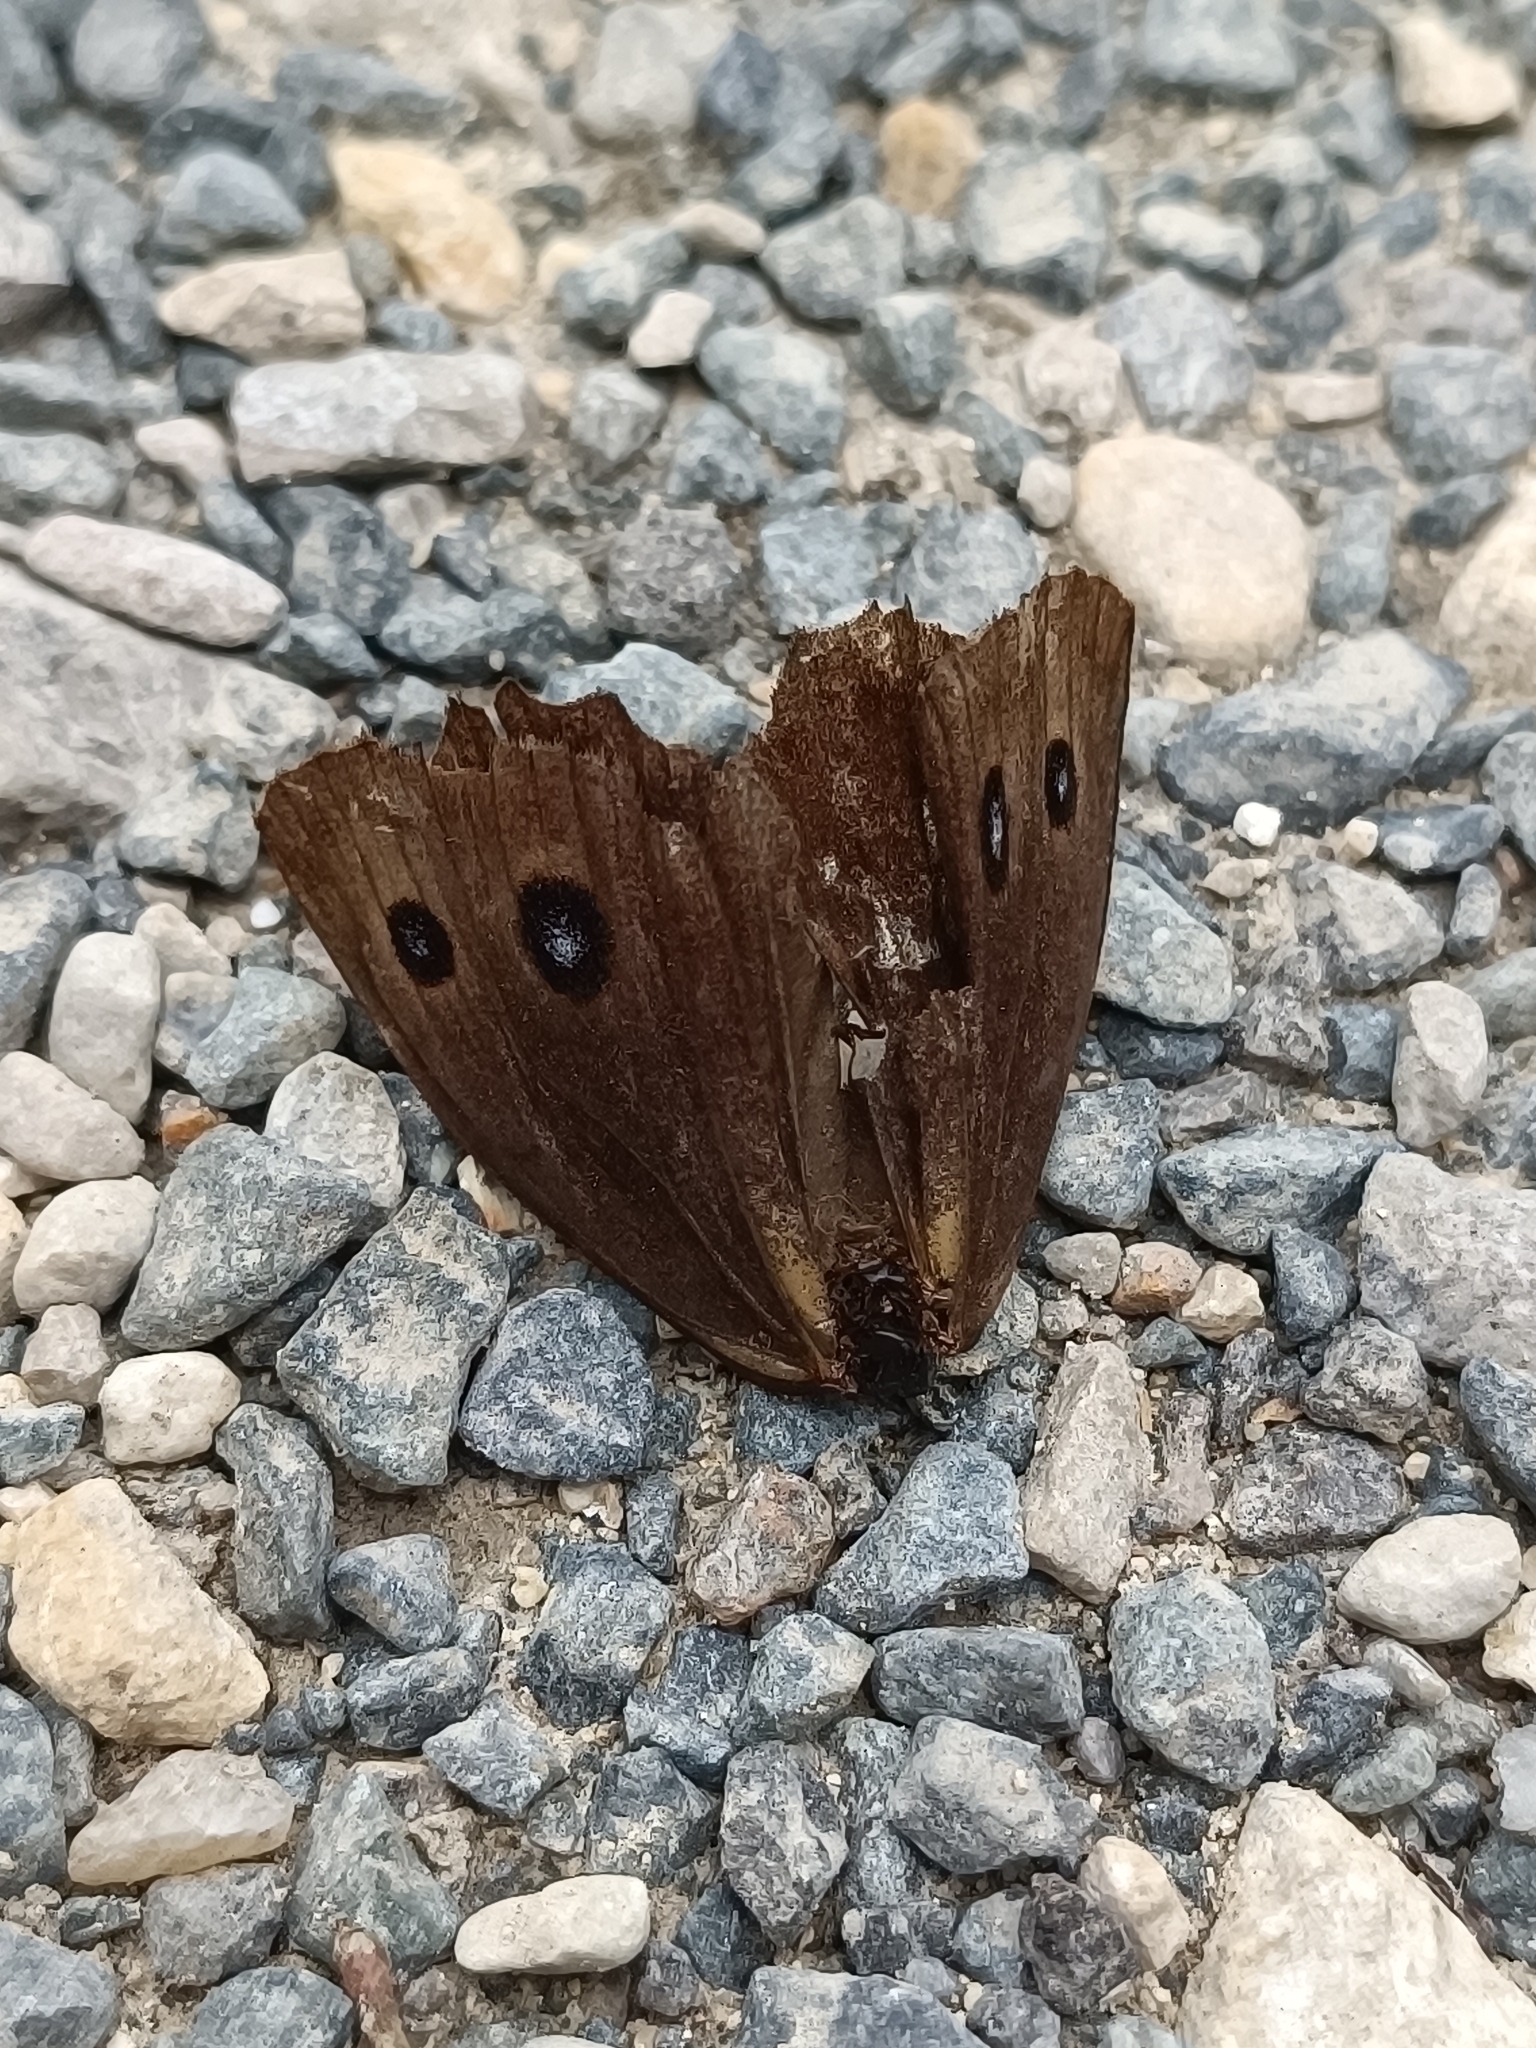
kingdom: Animalia
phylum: Arthropoda
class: Insecta
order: Lepidoptera
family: Nymphalidae
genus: Minois
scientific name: Minois dryas
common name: Dryad
